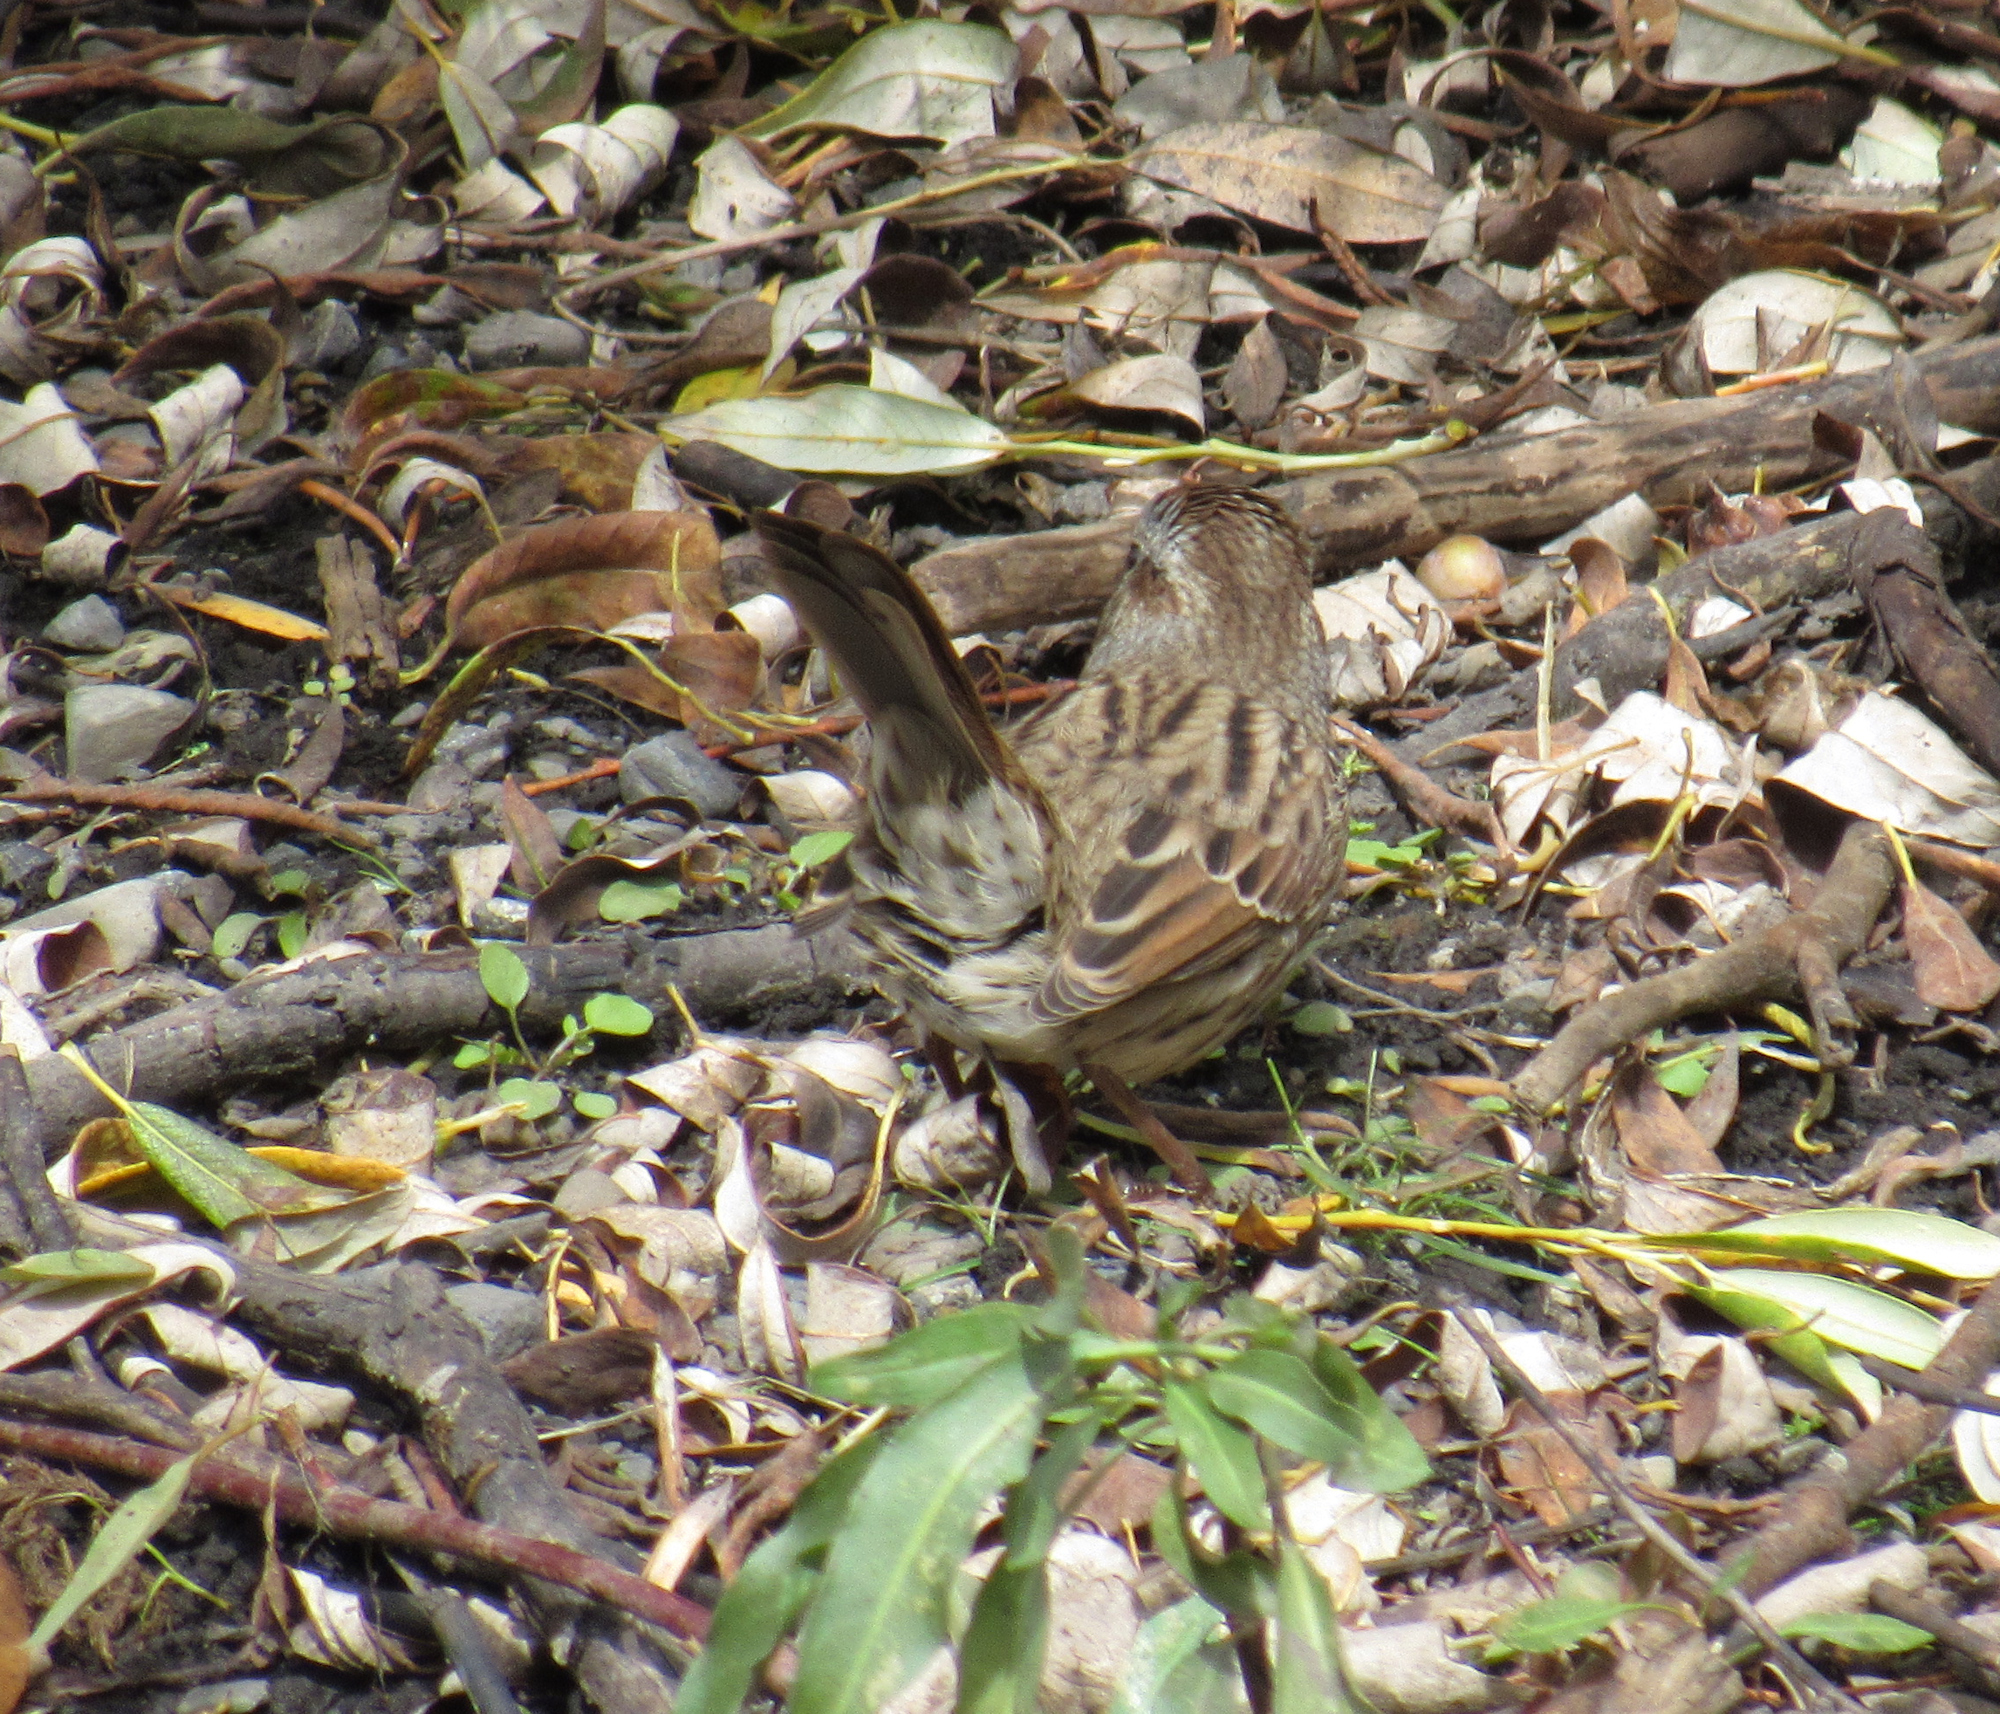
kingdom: Animalia
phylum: Chordata
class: Aves
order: Passeriformes
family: Passerellidae
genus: Melospiza
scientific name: Melospiza melodia
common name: Song sparrow
